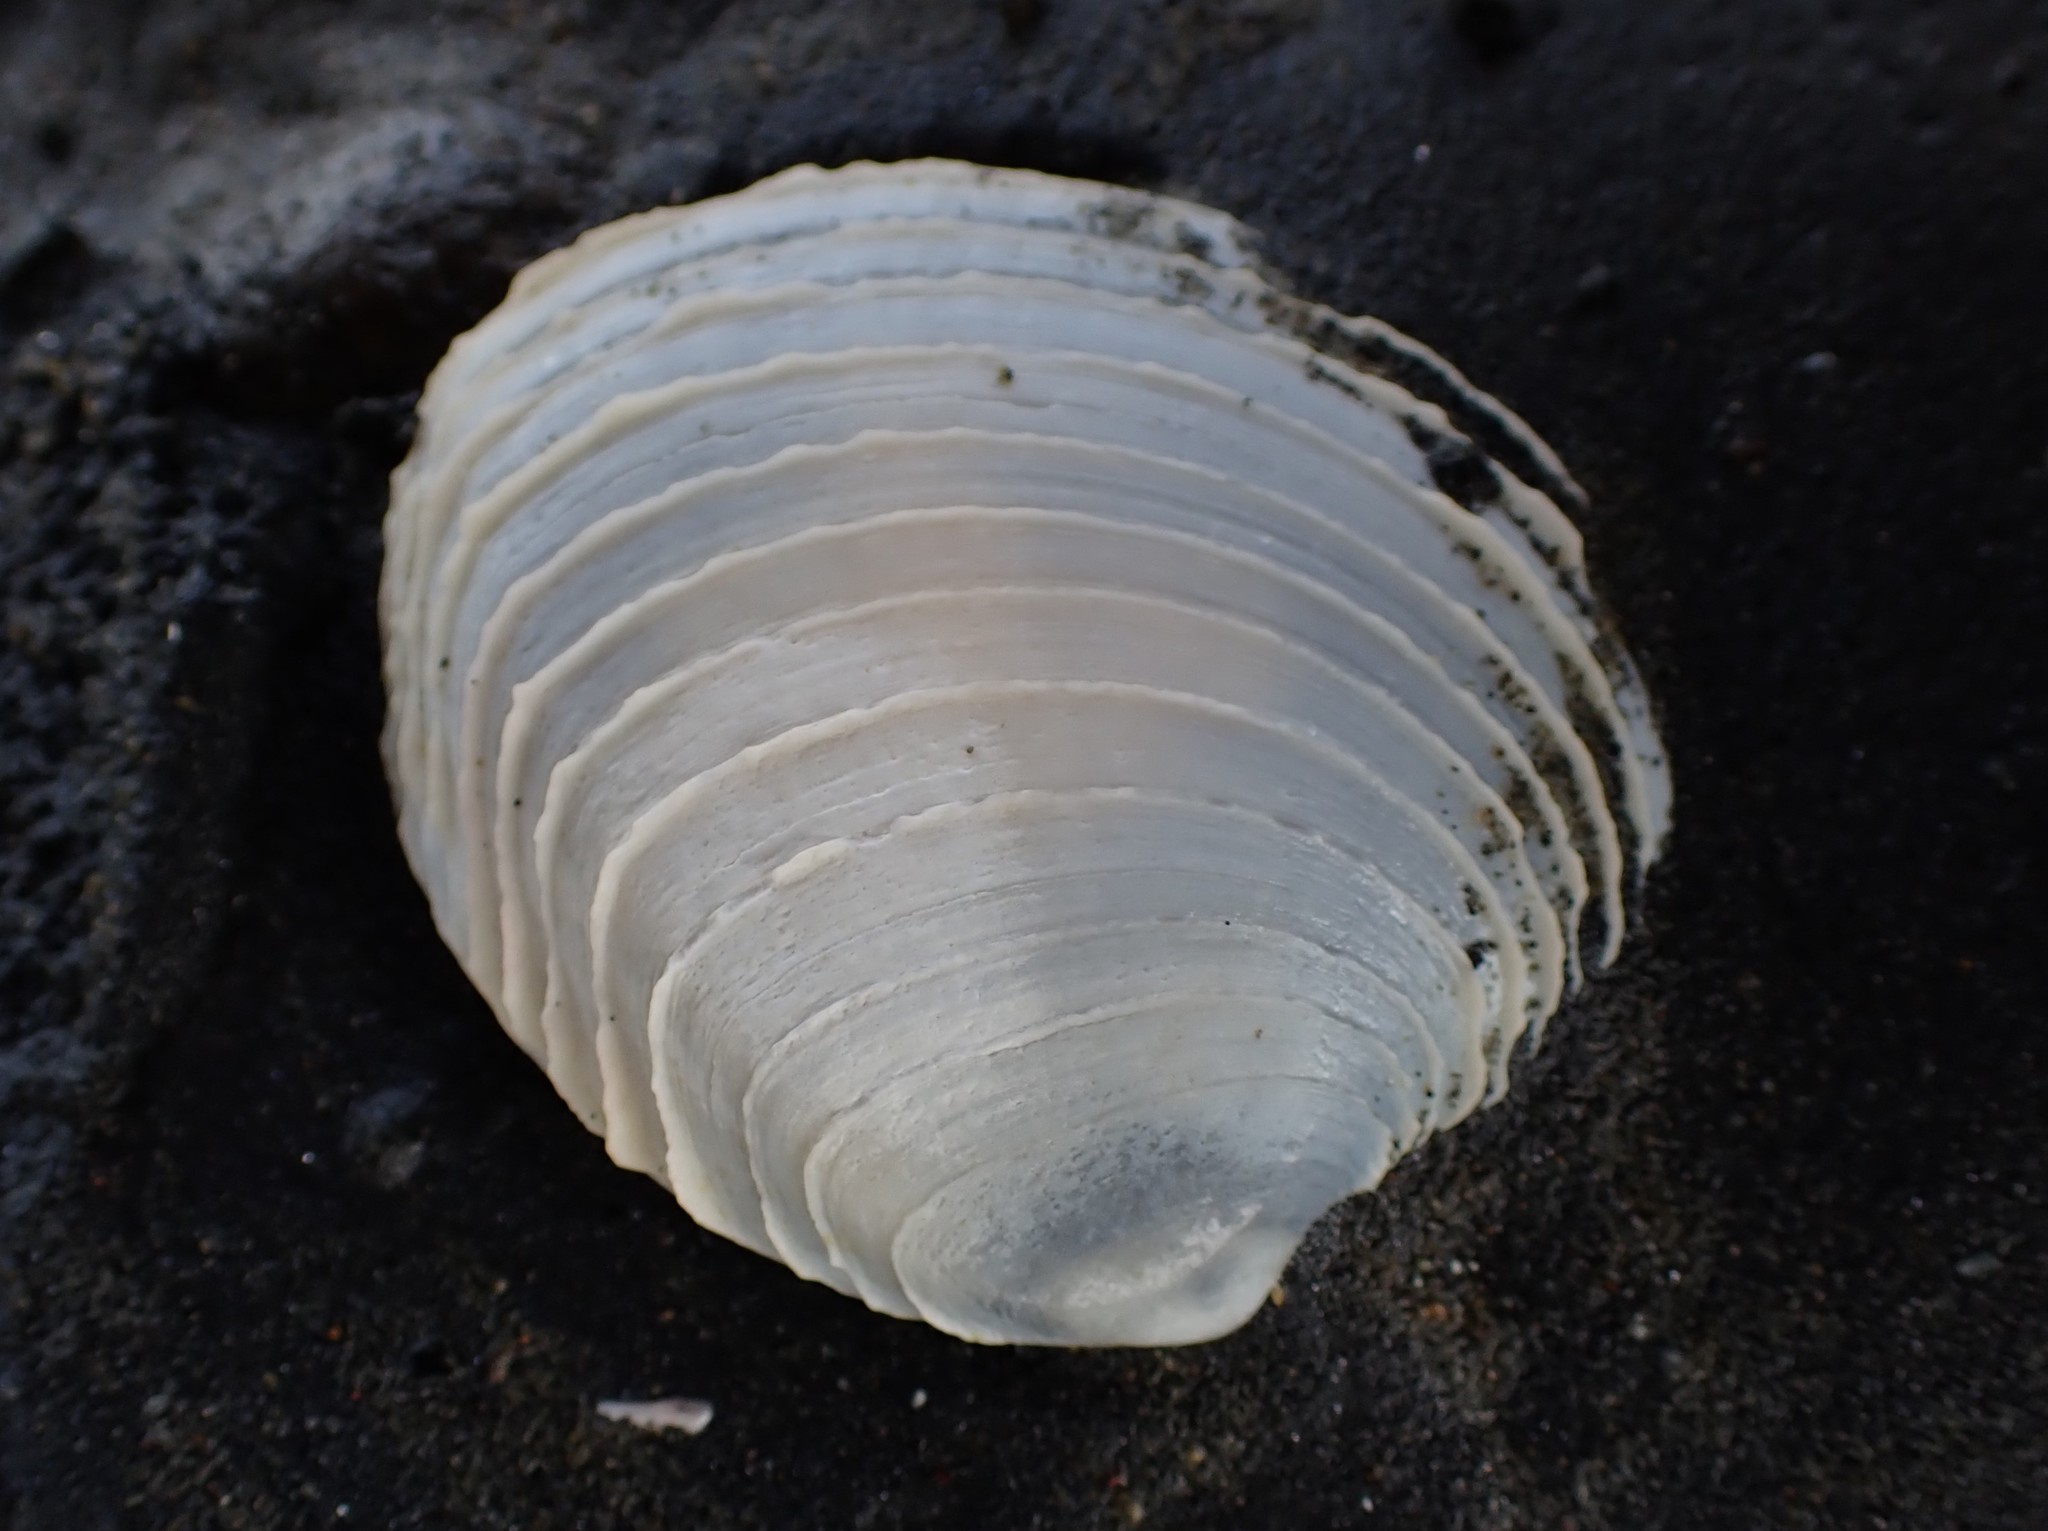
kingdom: Animalia
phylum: Mollusca
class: Bivalvia
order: Venerida
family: Veneridae
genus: Bassina
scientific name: Bassina yatei
